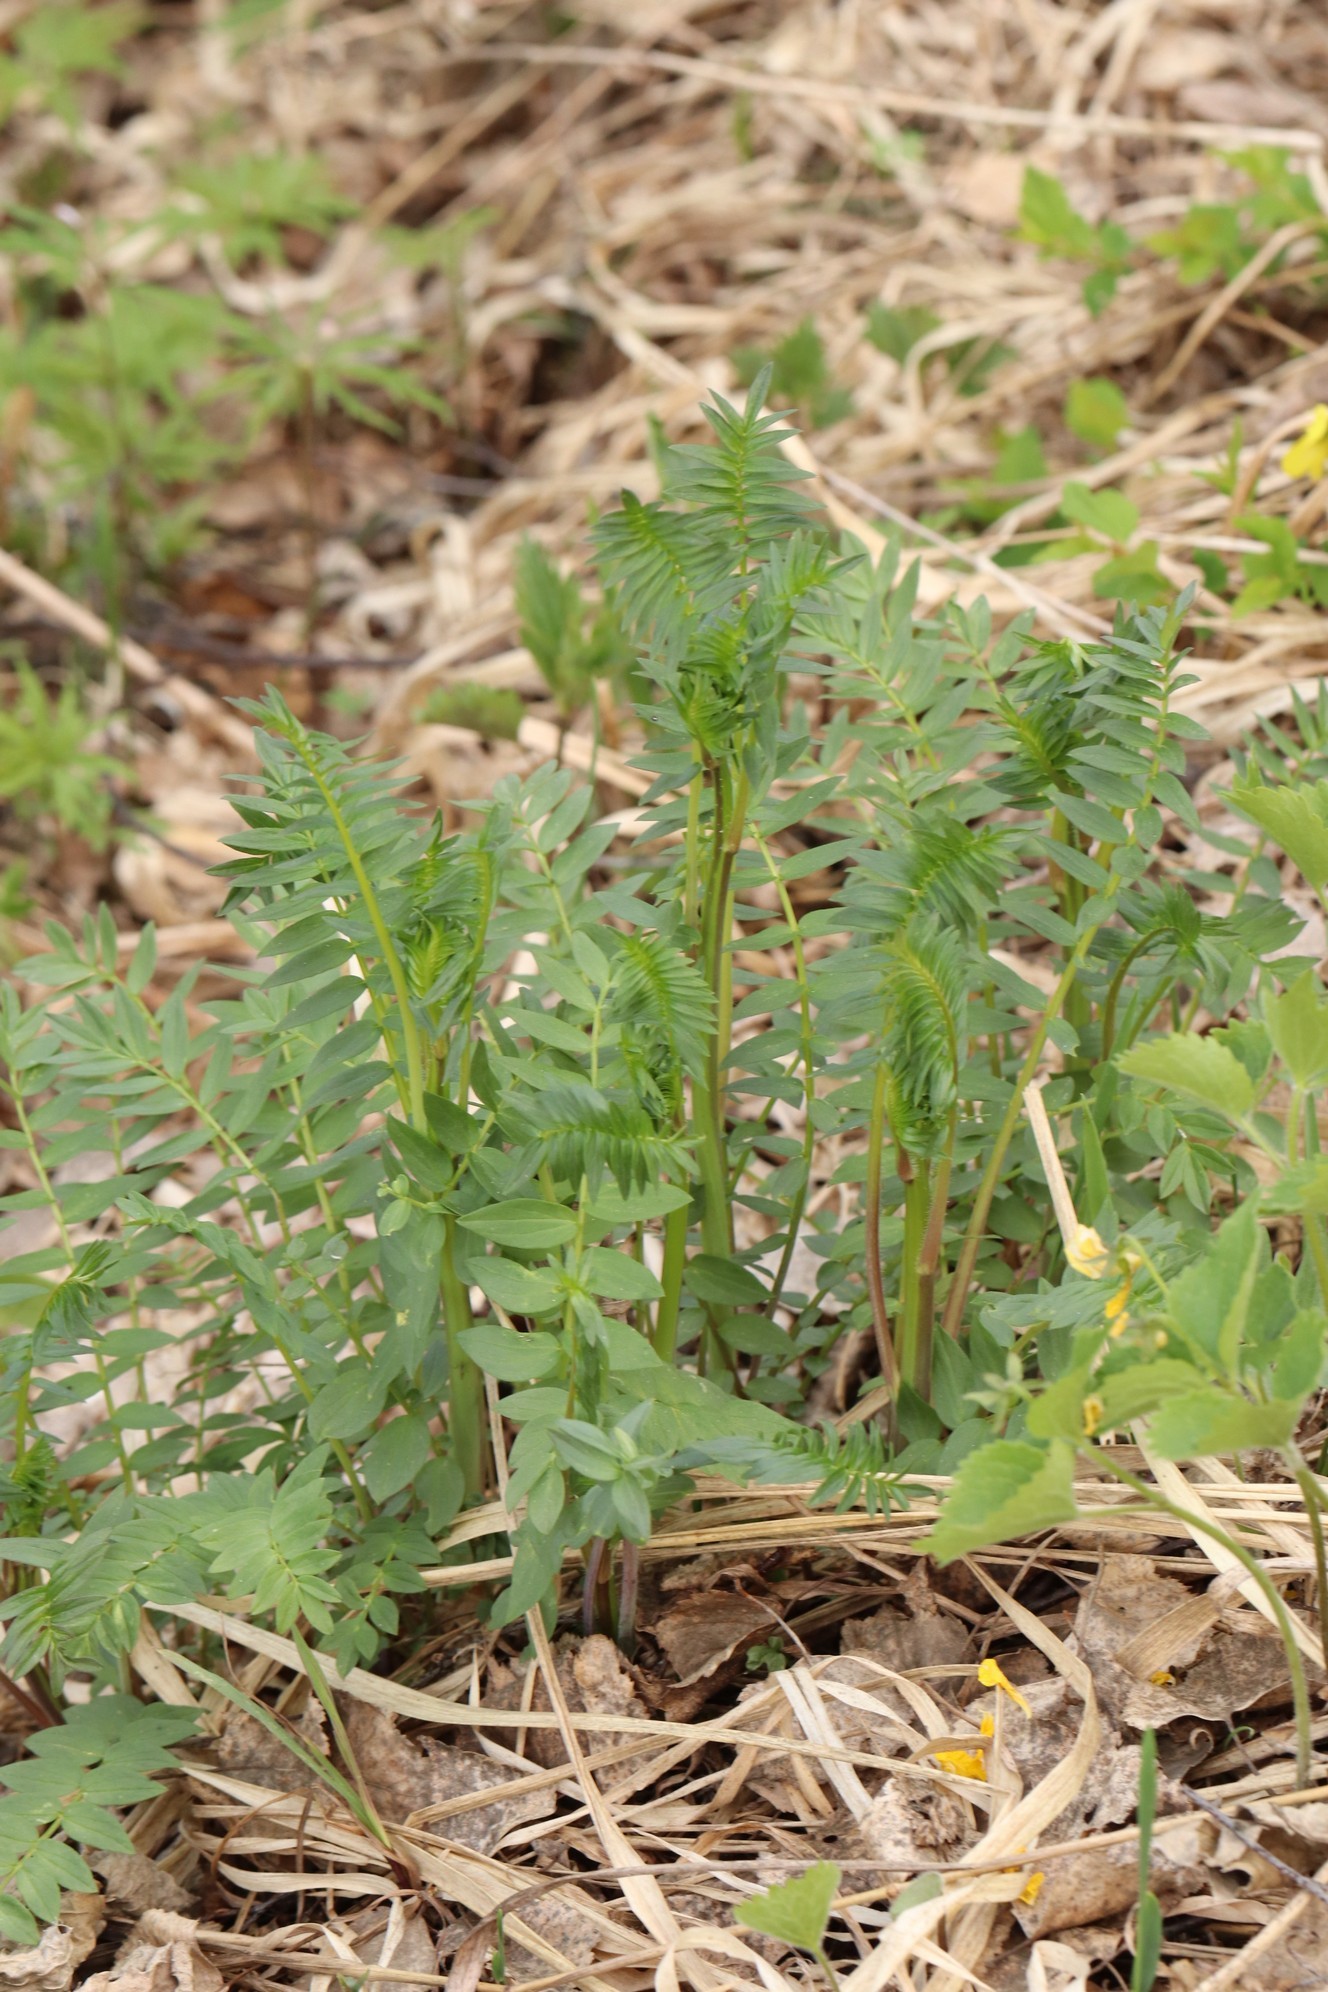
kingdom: Plantae
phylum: Tracheophyta
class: Magnoliopsida
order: Ericales
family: Polemoniaceae
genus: Polemonium
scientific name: Polemonium caeruleum
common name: Jacob's-ladder
